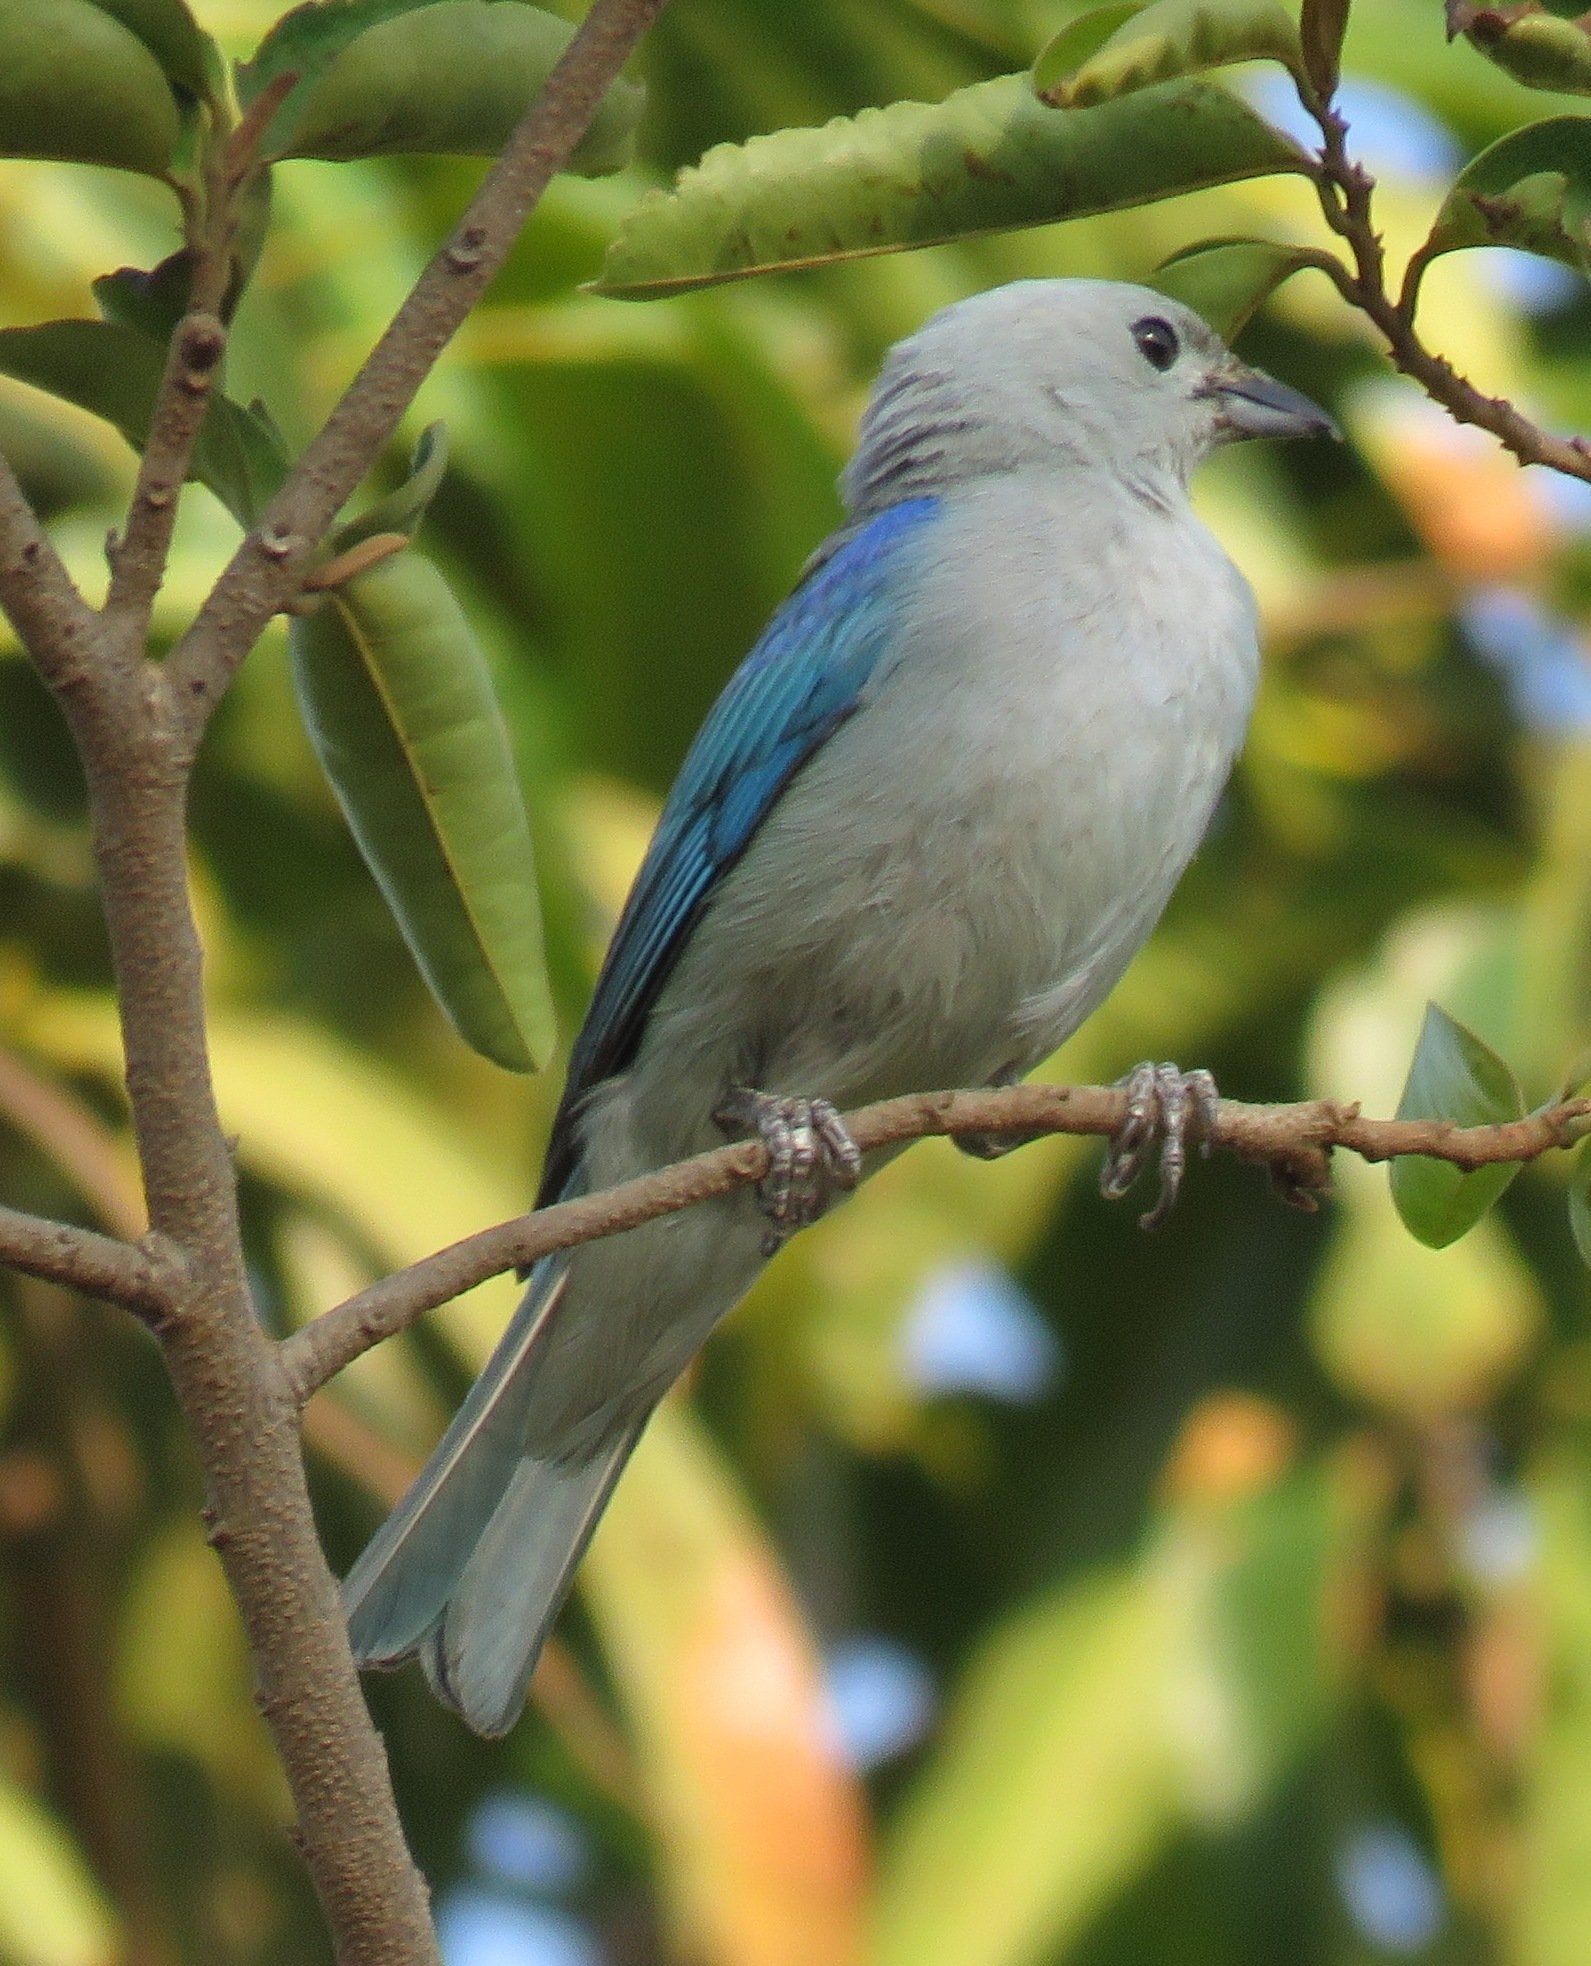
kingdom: Animalia
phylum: Chordata
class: Aves
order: Passeriformes
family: Thraupidae
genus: Thraupis
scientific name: Thraupis episcopus
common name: Blue-grey tanager
